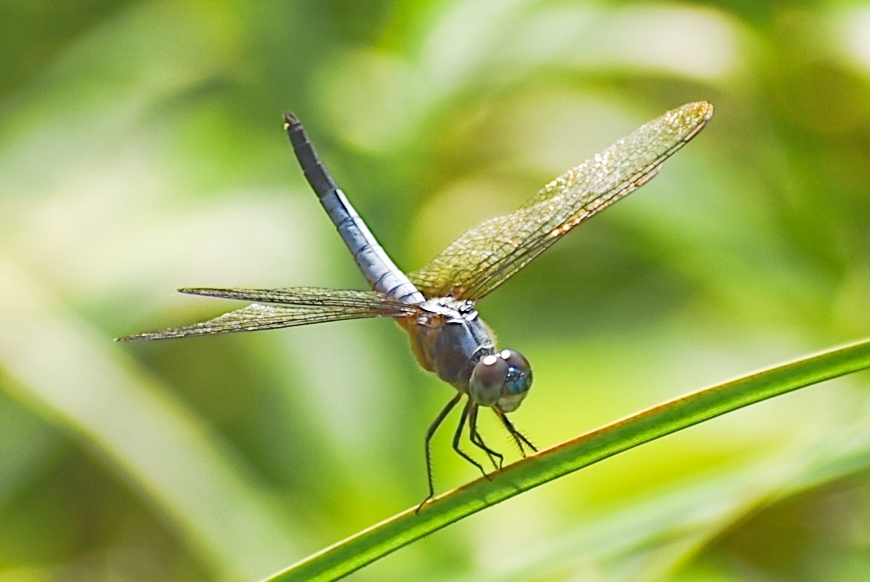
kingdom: Animalia
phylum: Arthropoda
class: Insecta
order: Odonata
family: Libellulidae
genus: Brachydiplax
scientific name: Brachydiplax chalybea
